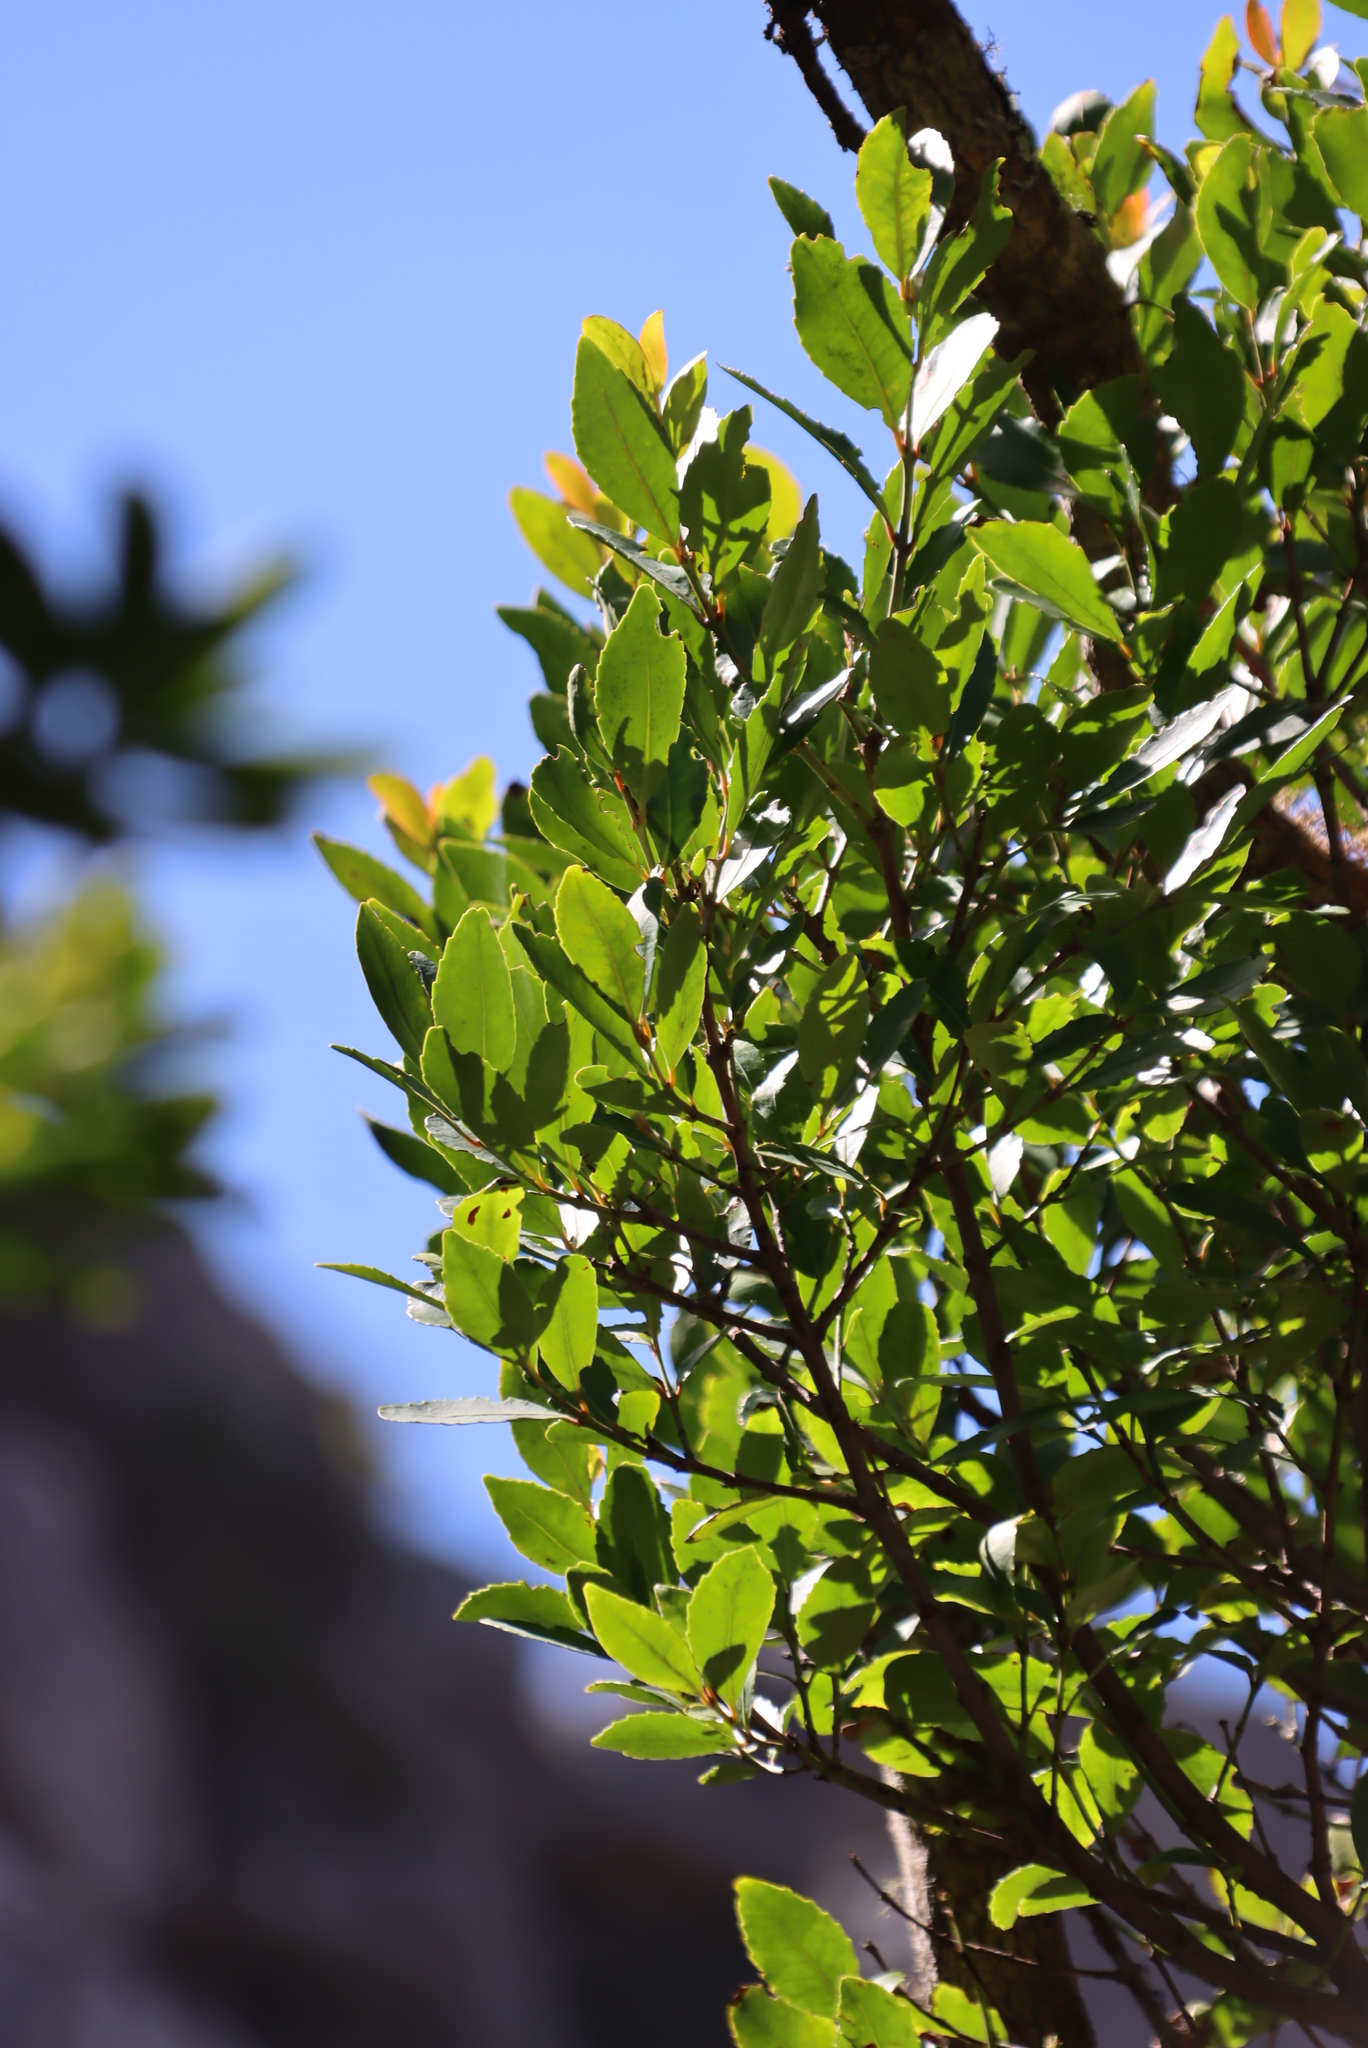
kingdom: Plantae
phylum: Tracheophyta
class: Magnoliopsida
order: Celastrales
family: Celastraceae
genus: Gymnosporia
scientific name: Gymnosporia acuminata
